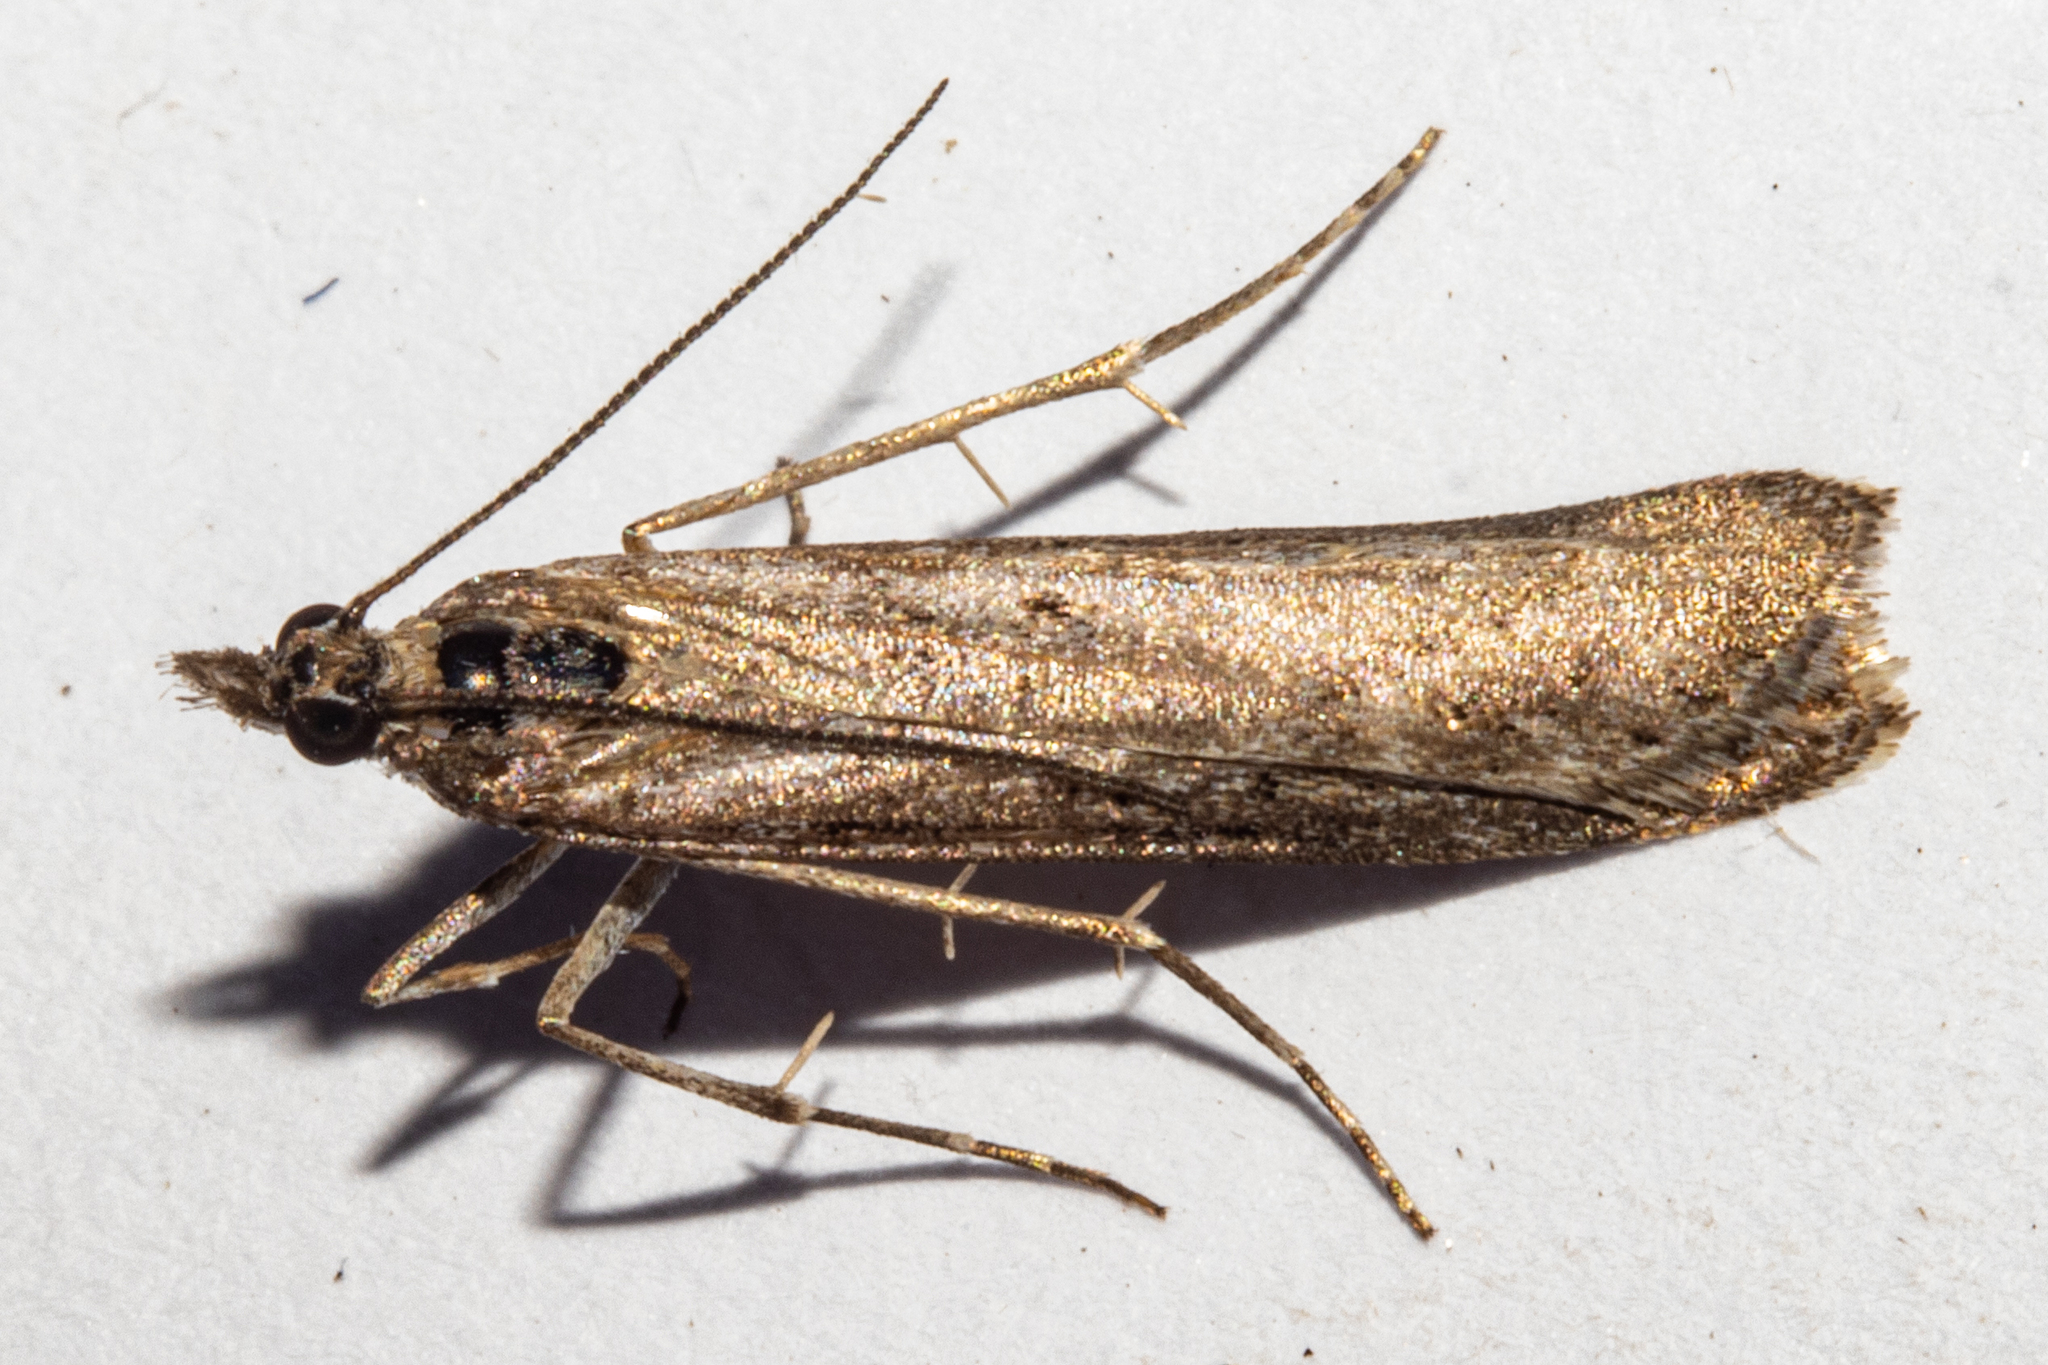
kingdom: Animalia
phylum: Arthropoda
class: Insecta
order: Lepidoptera
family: Crambidae
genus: Eudonia
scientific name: Eudonia leptalea
